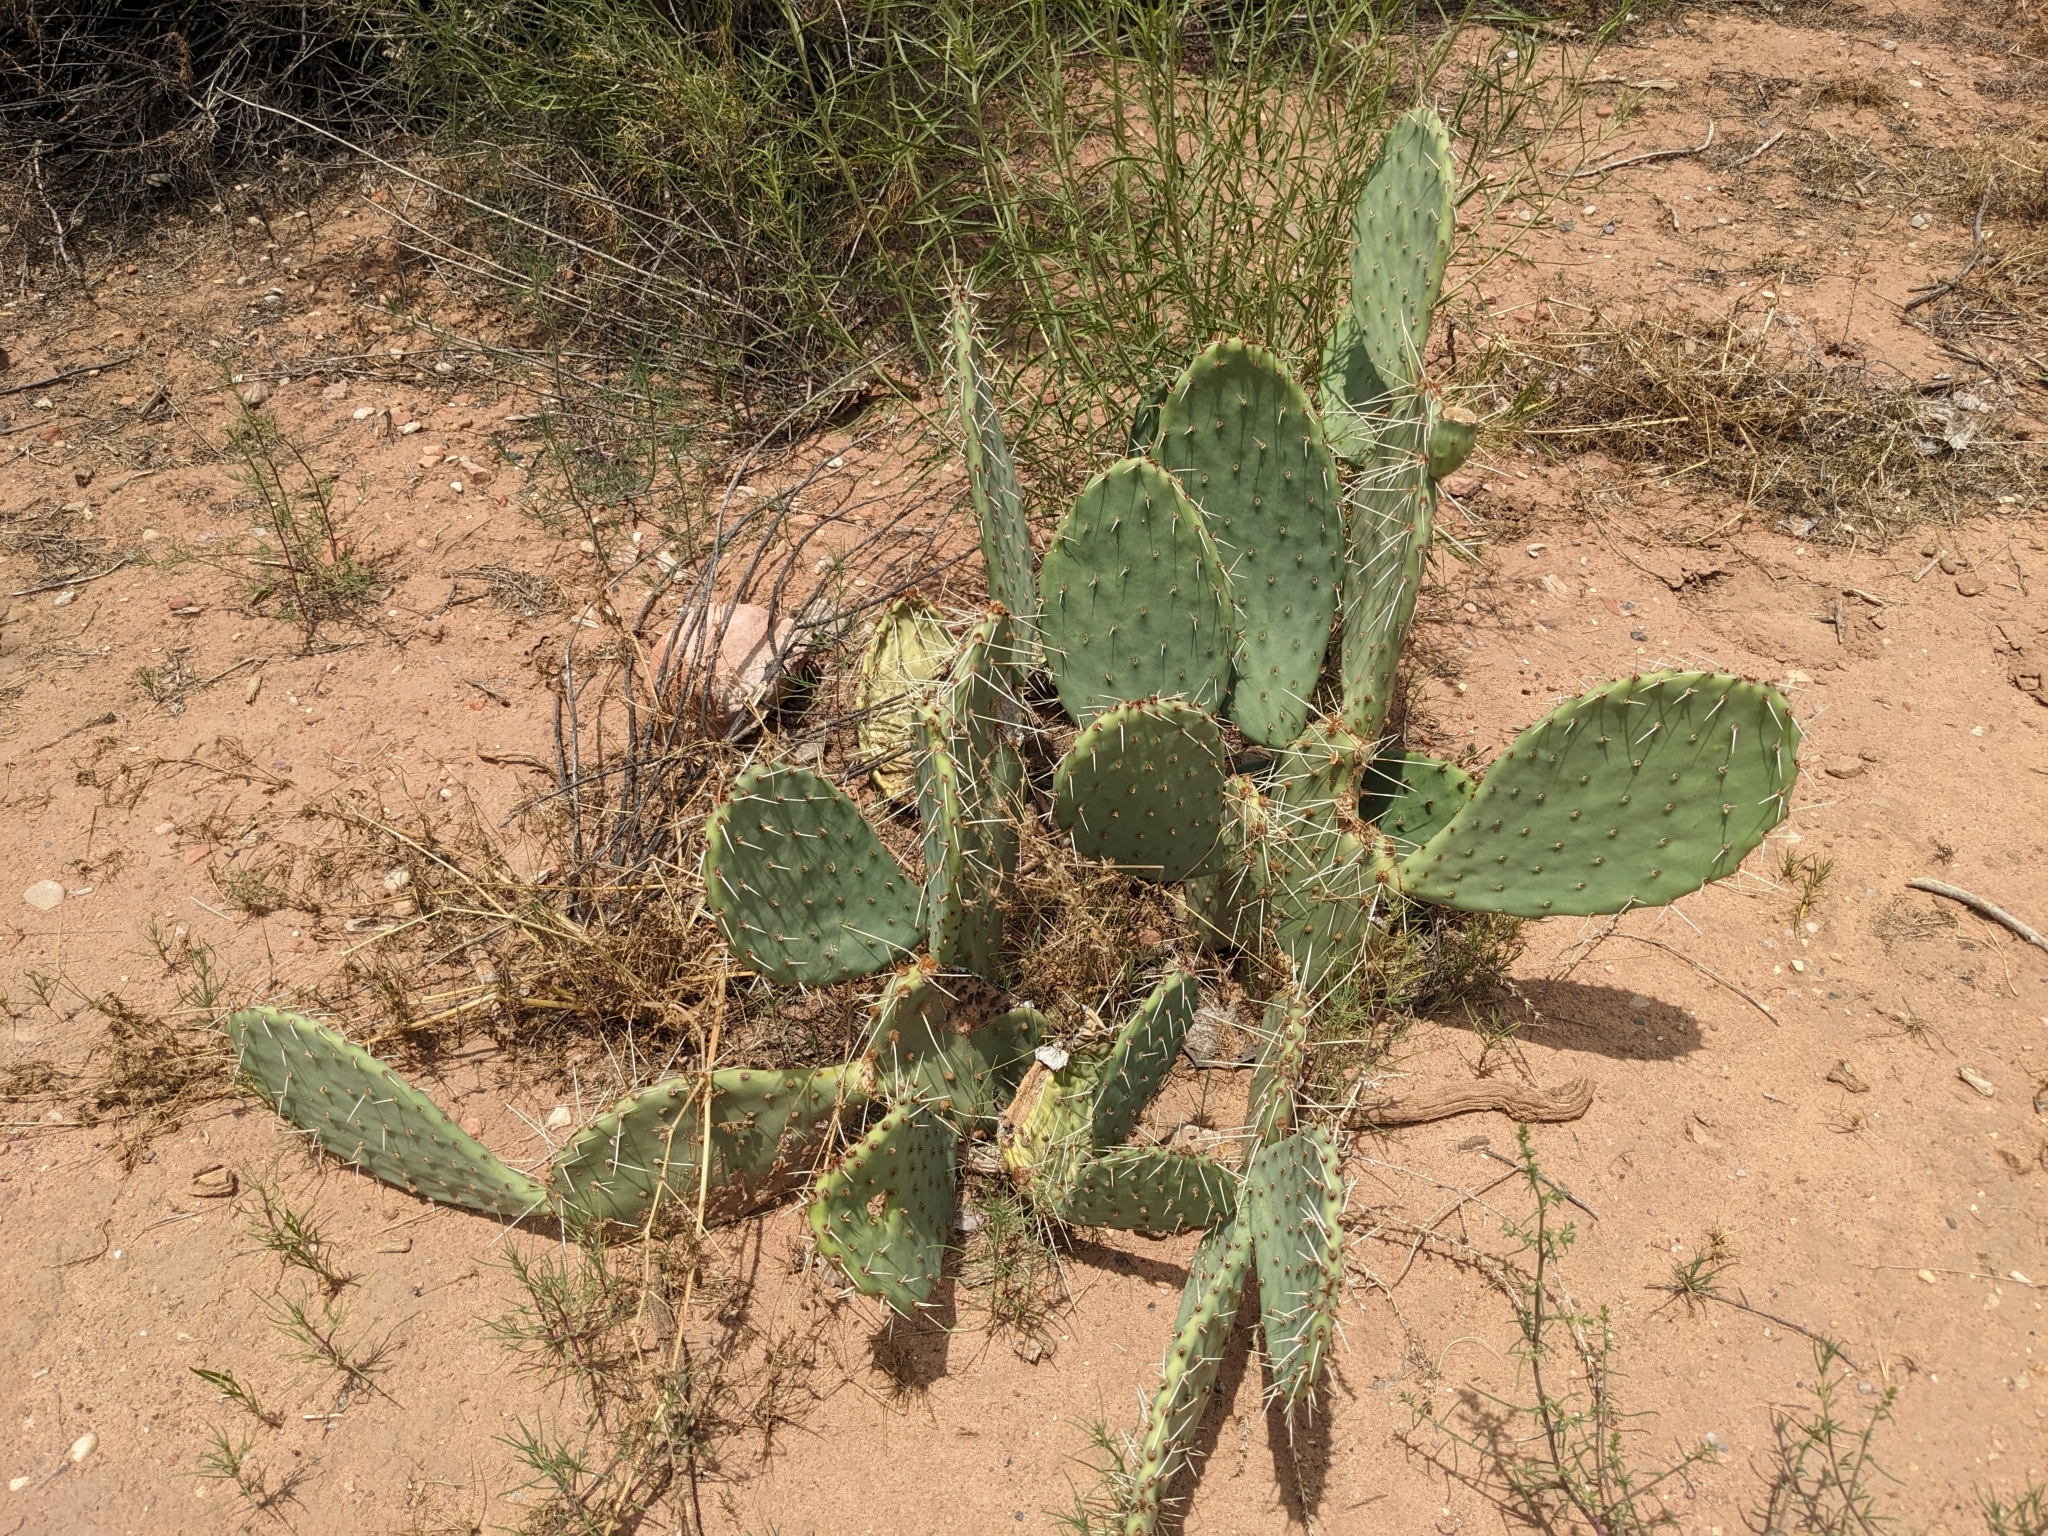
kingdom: Plantae
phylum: Tracheophyta
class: Magnoliopsida
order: Caryophyllales
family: Cactaceae
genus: Opuntia
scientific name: Opuntia engelmannii
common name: Cactus-apple
